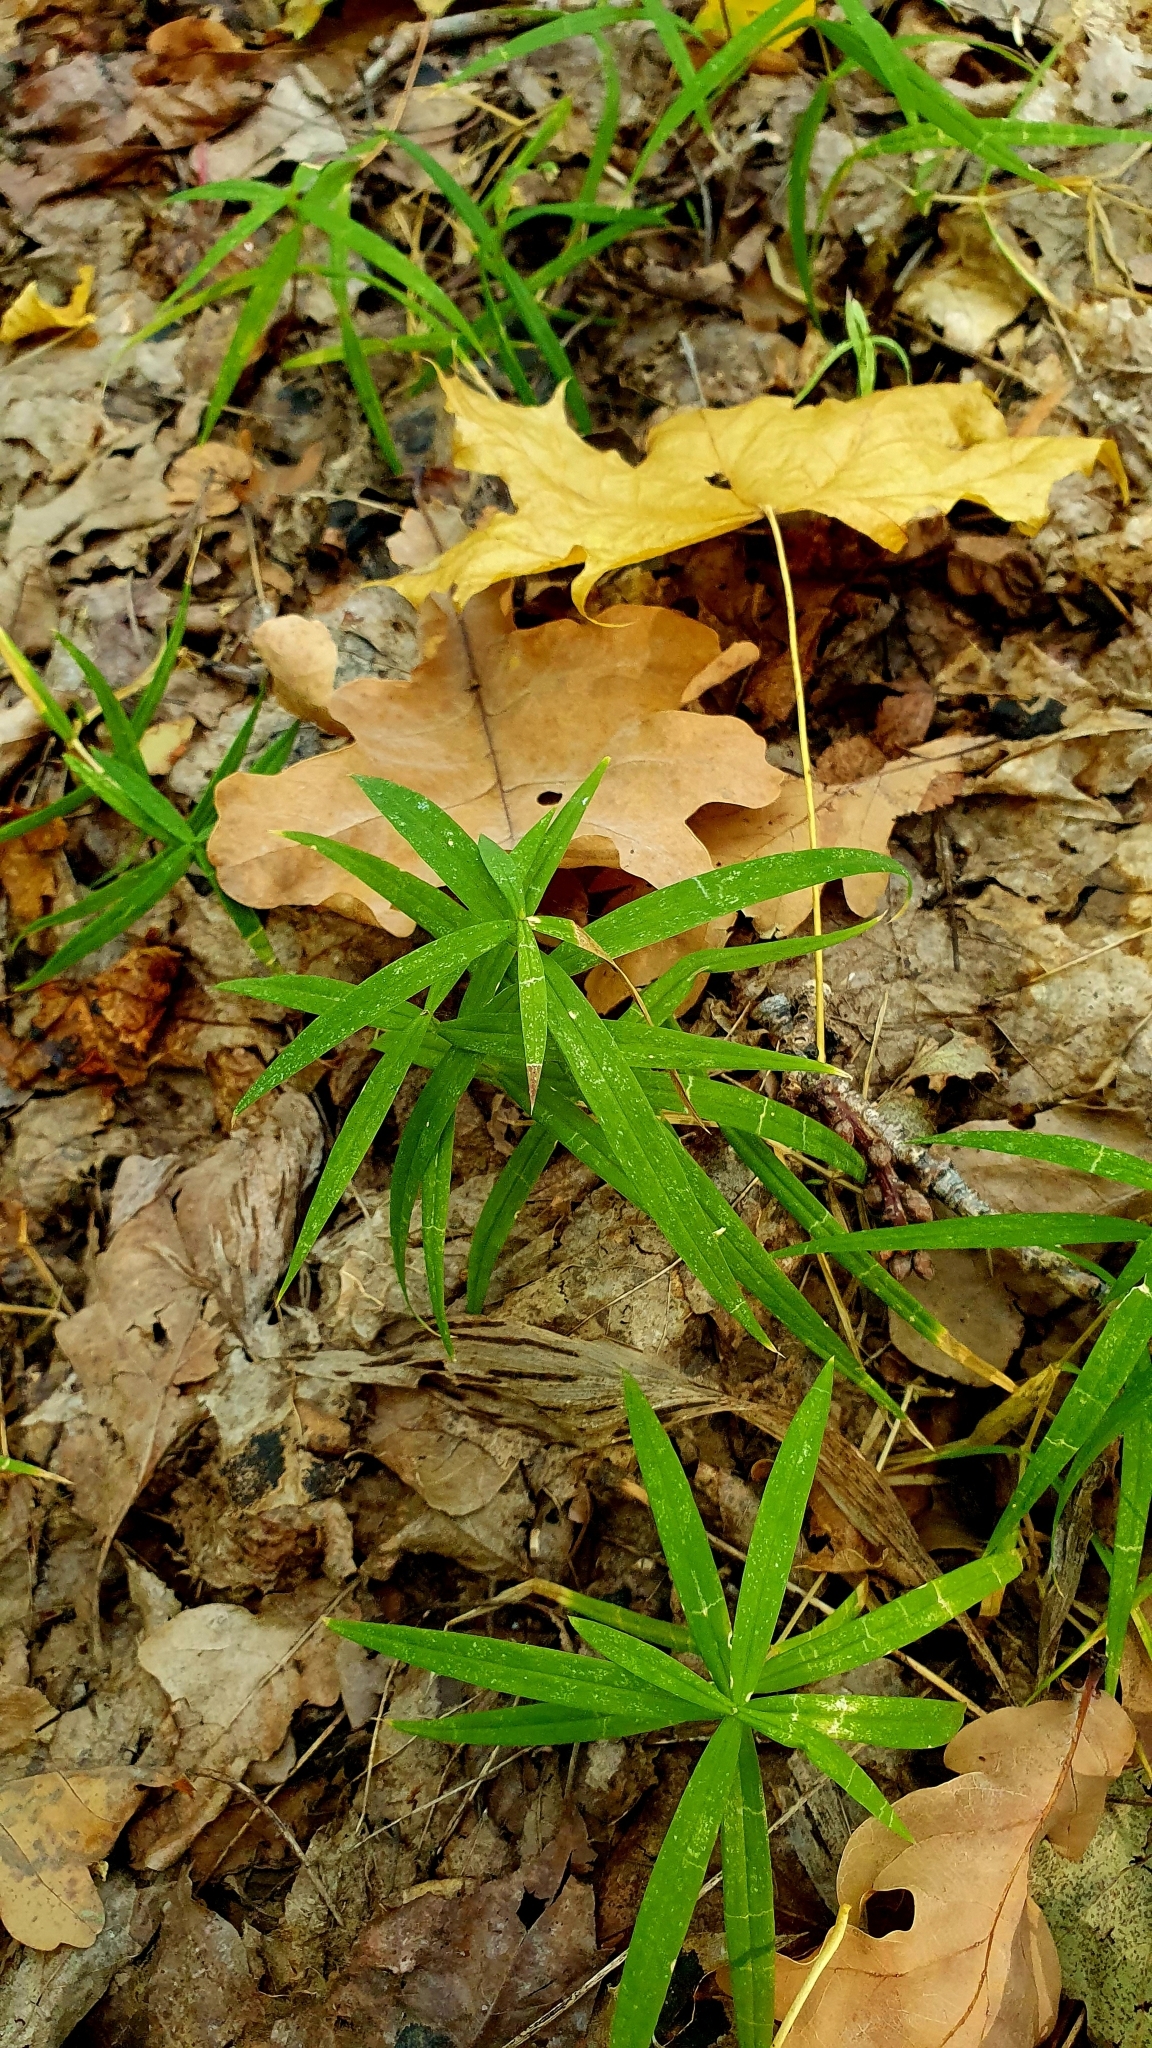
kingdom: Plantae
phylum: Tracheophyta
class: Magnoliopsida
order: Caryophyllales
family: Caryophyllaceae
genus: Rabelera
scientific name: Rabelera holostea
